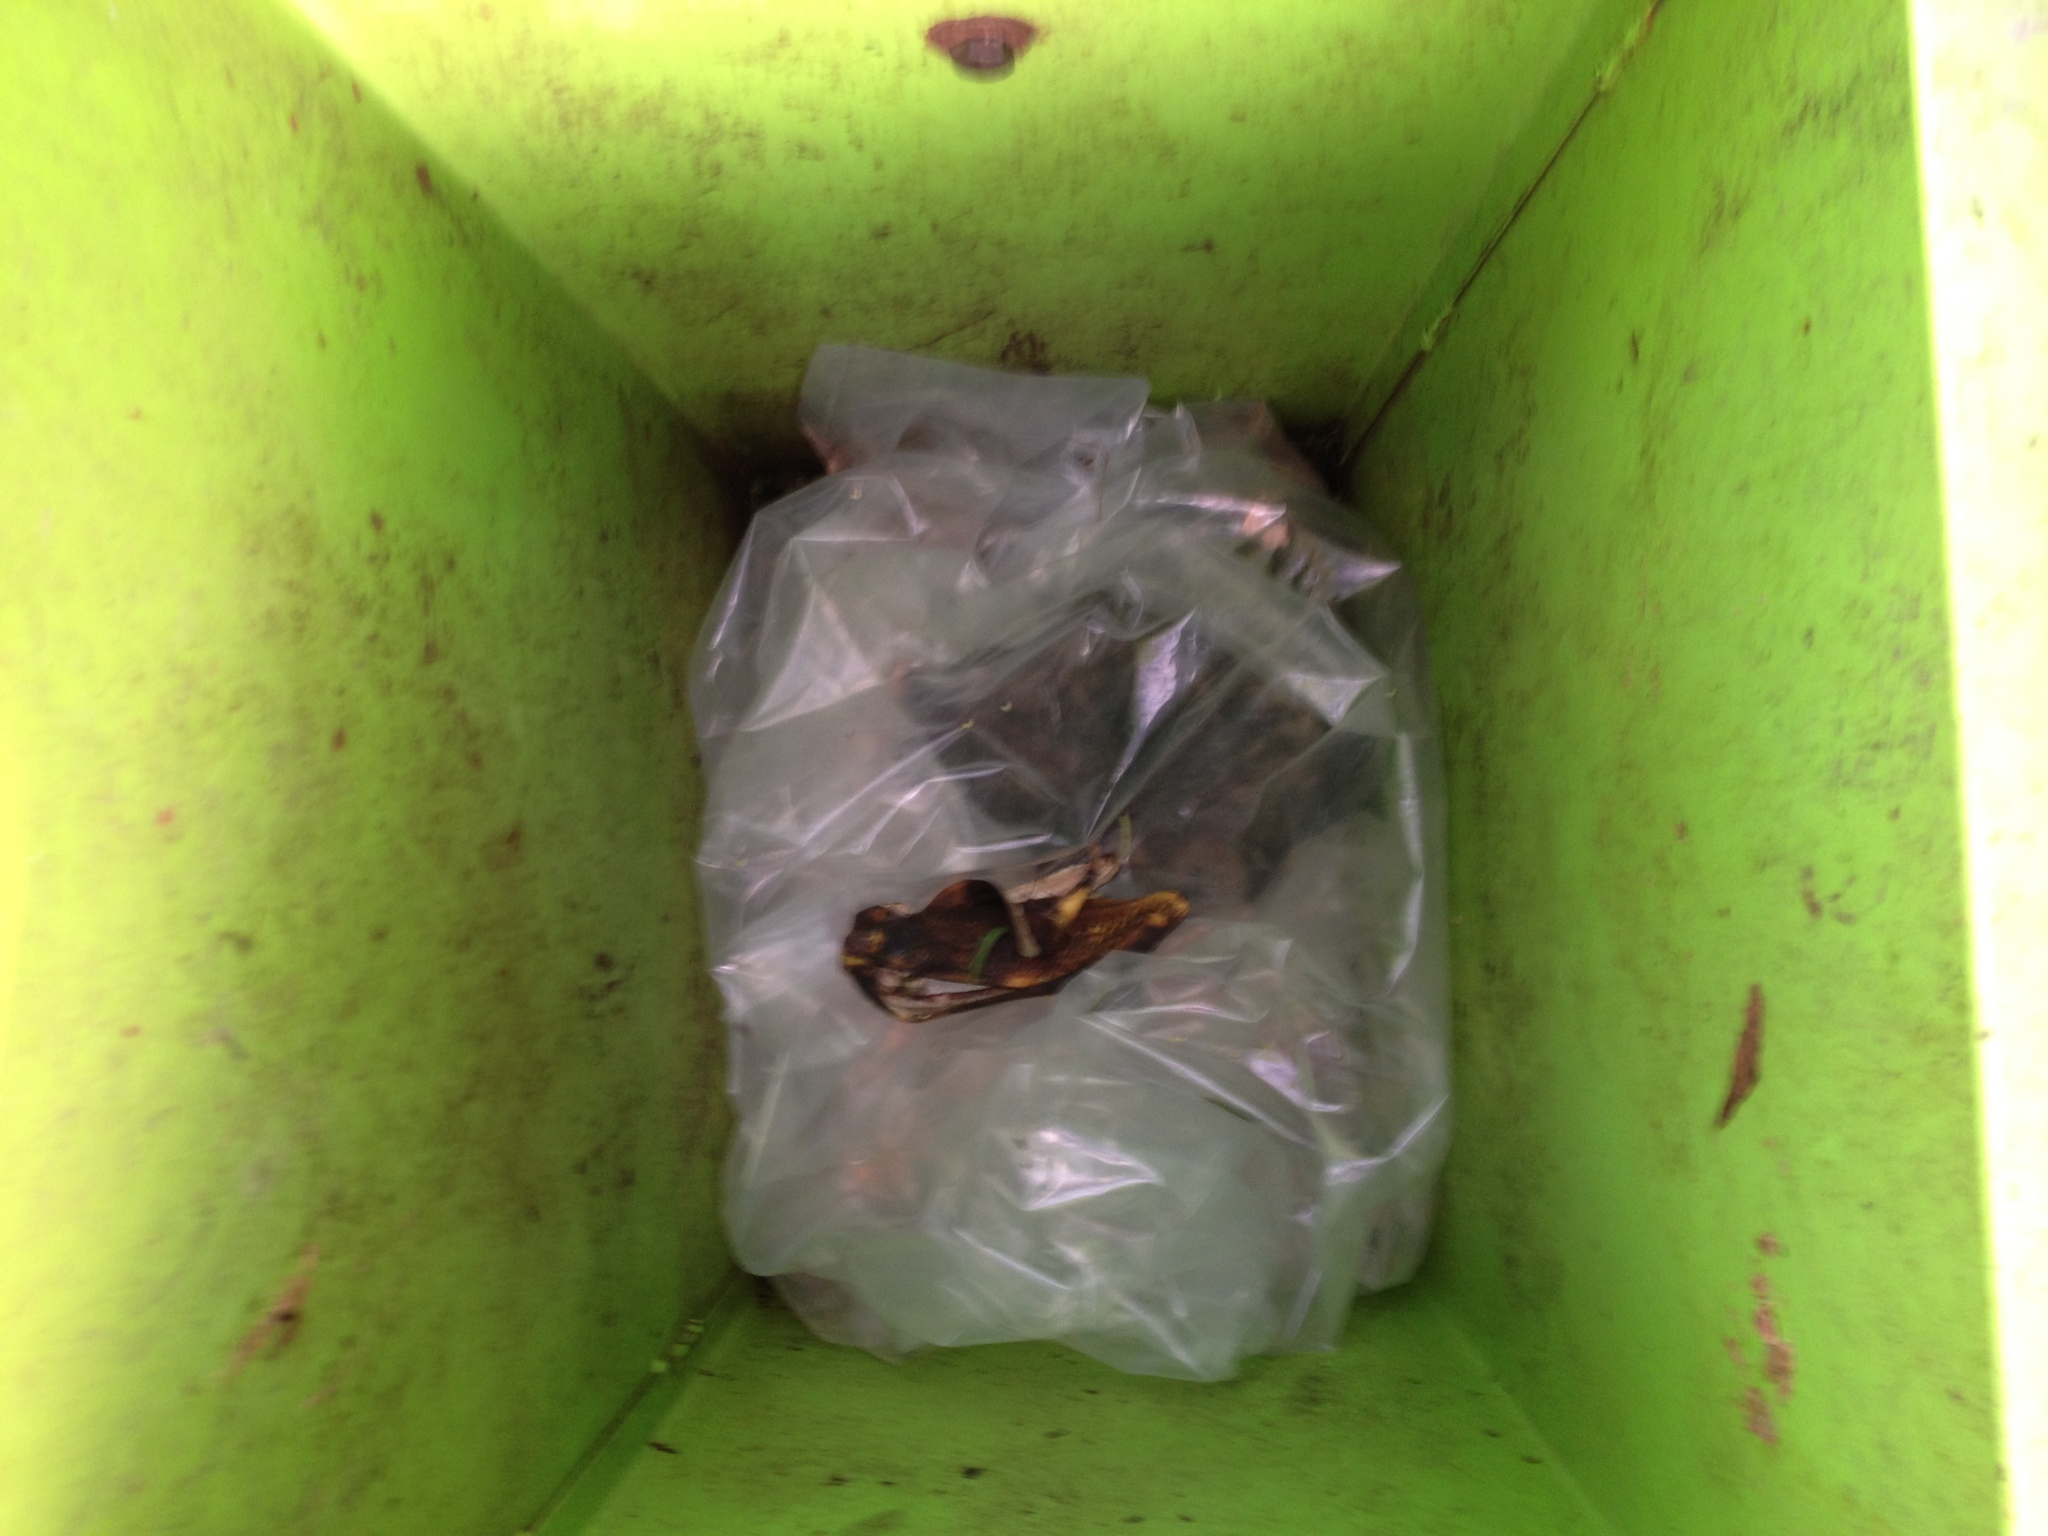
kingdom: Animalia
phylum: Chordata
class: Mammalia
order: Didelphimorphia
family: Didelphidae
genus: Didelphis
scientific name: Didelphis virginiana
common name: Virginia opossum
